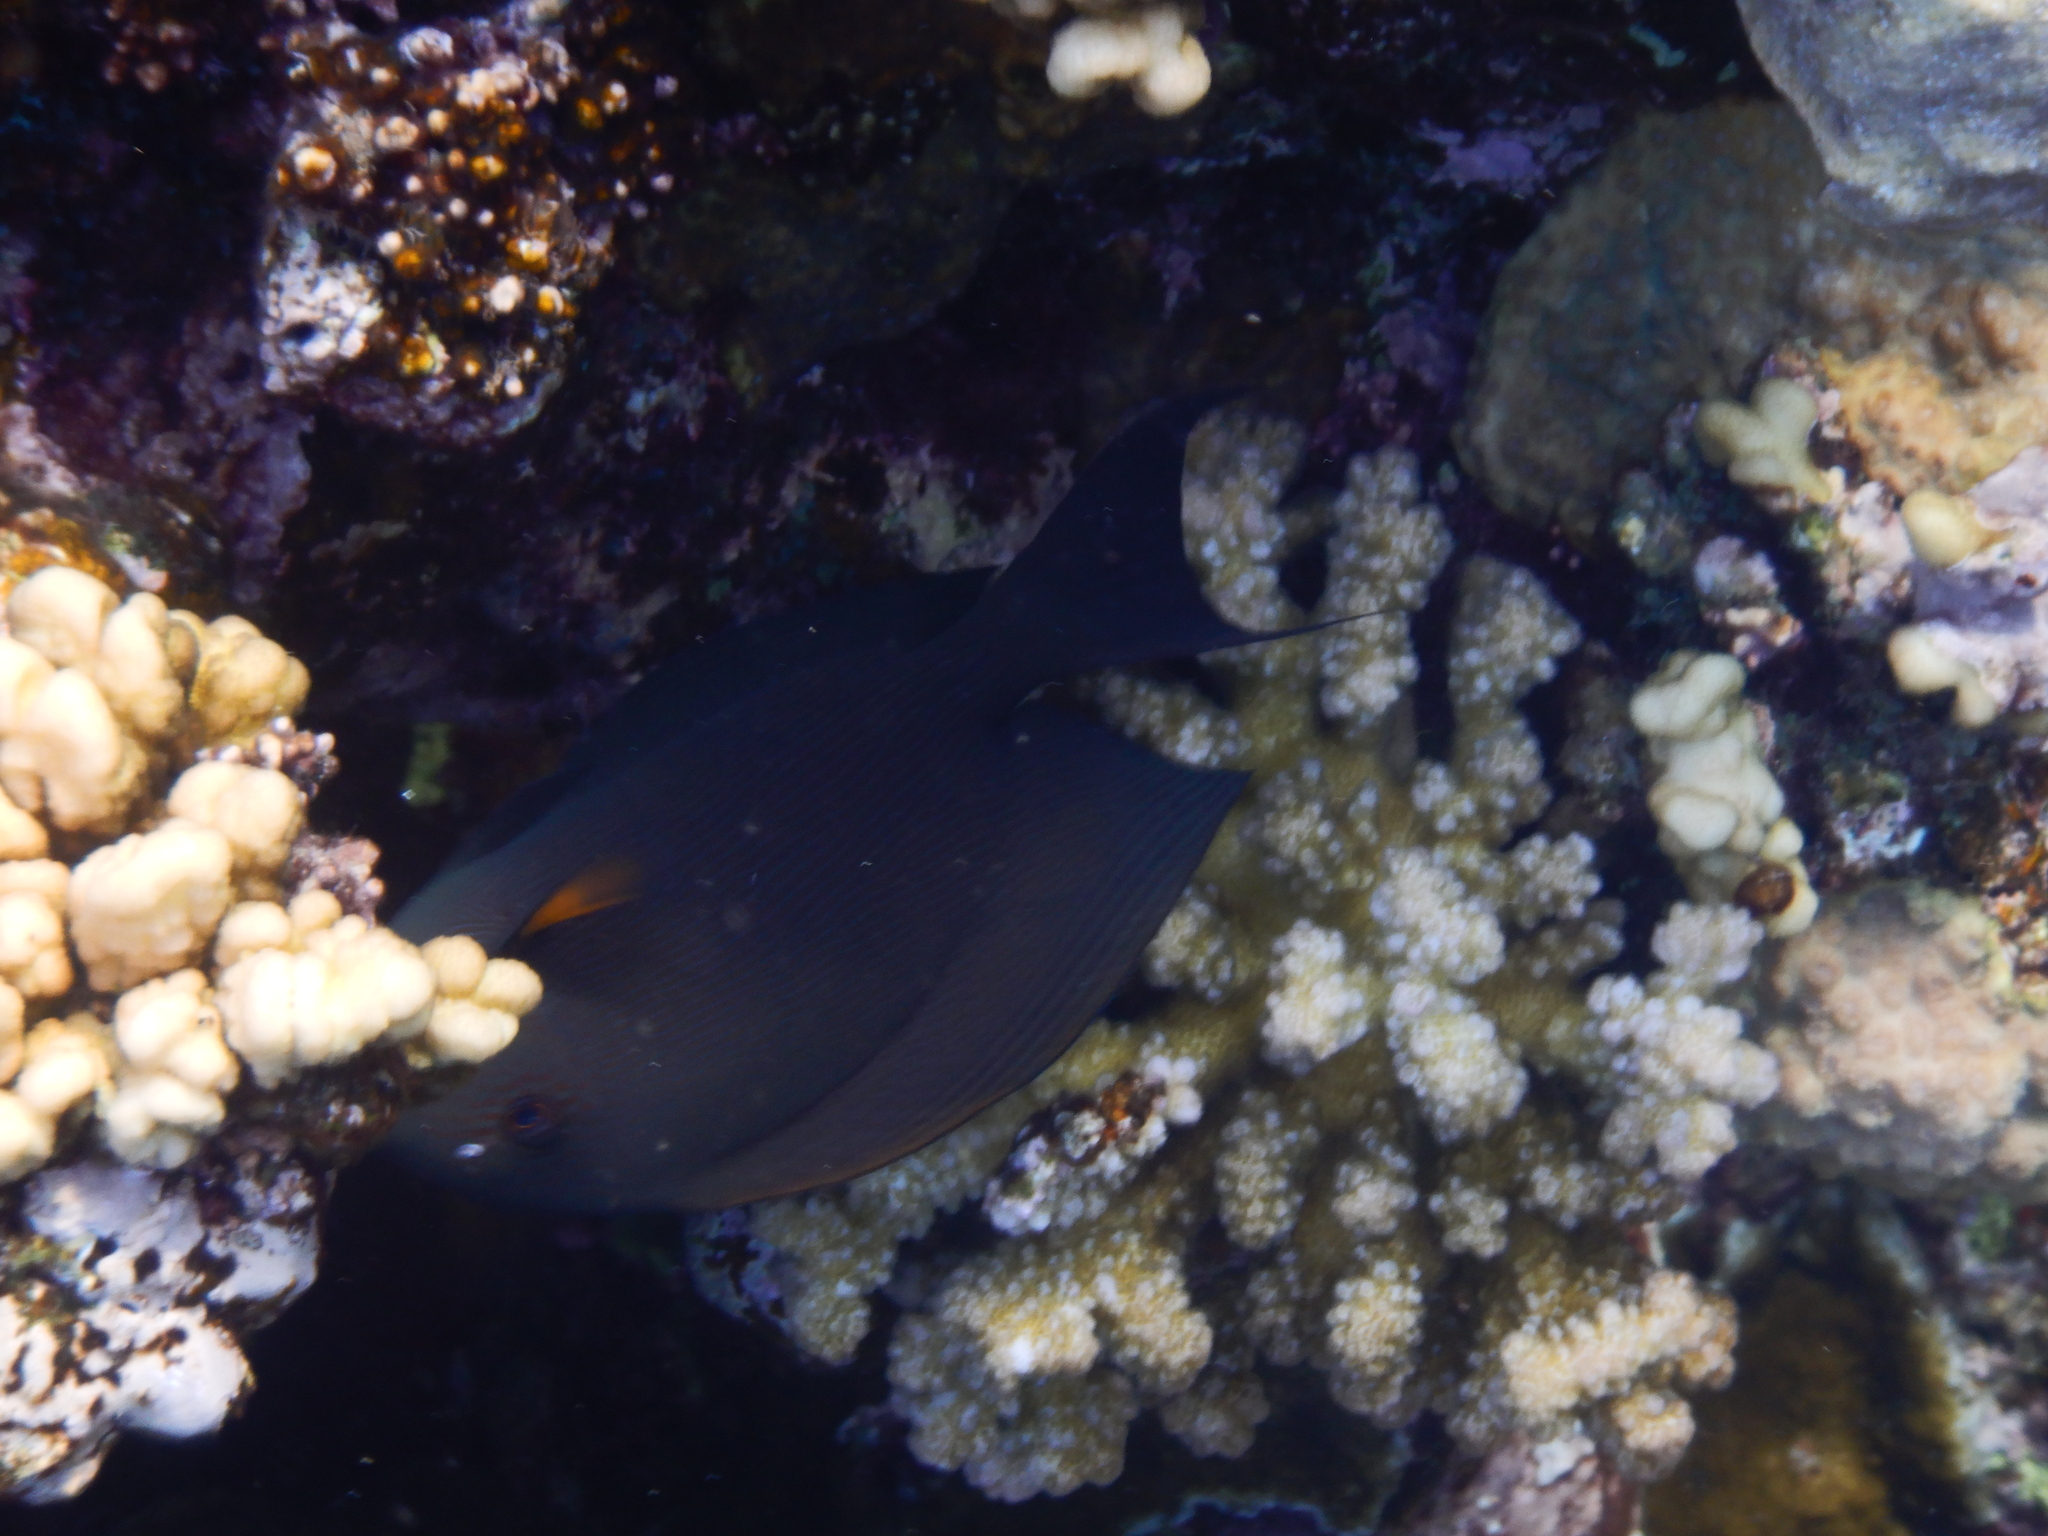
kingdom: Animalia
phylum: Chordata
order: Perciformes
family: Acanthuridae
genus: Ctenochaetus
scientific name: Ctenochaetus striatus
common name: Bristle-toothed surgeonfish
